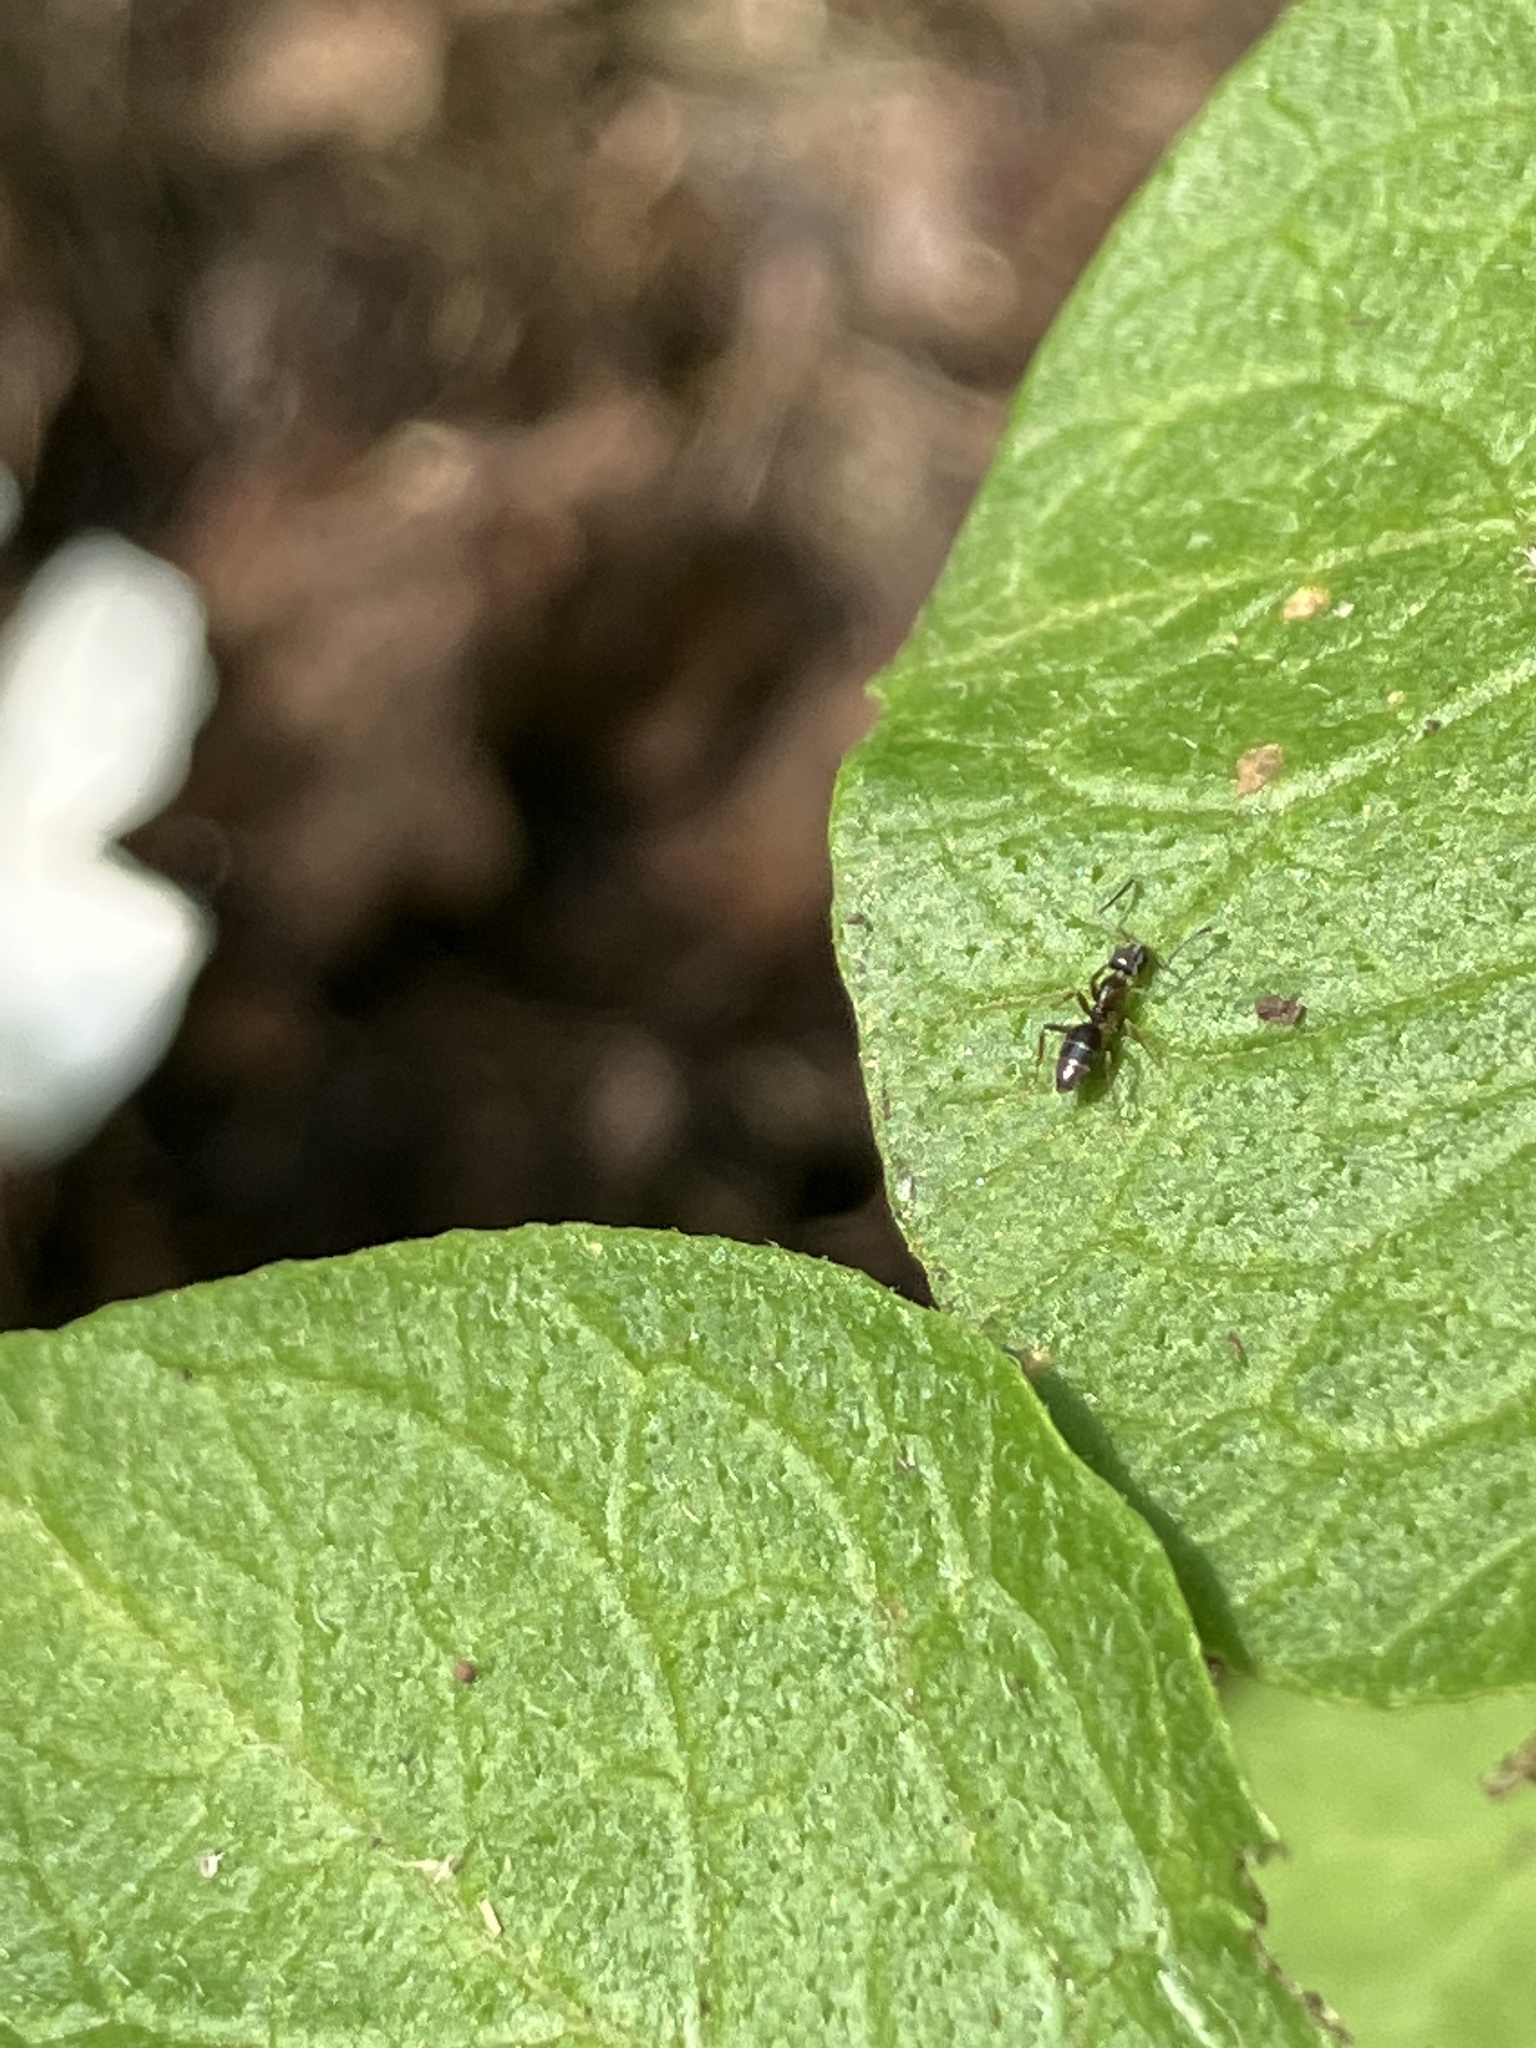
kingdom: Animalia
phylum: Arthropoda
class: Insecta
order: Hymenoptera
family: Formicidae
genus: Tapinoma
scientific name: Tapinoma sessile
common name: Odorous house ant
